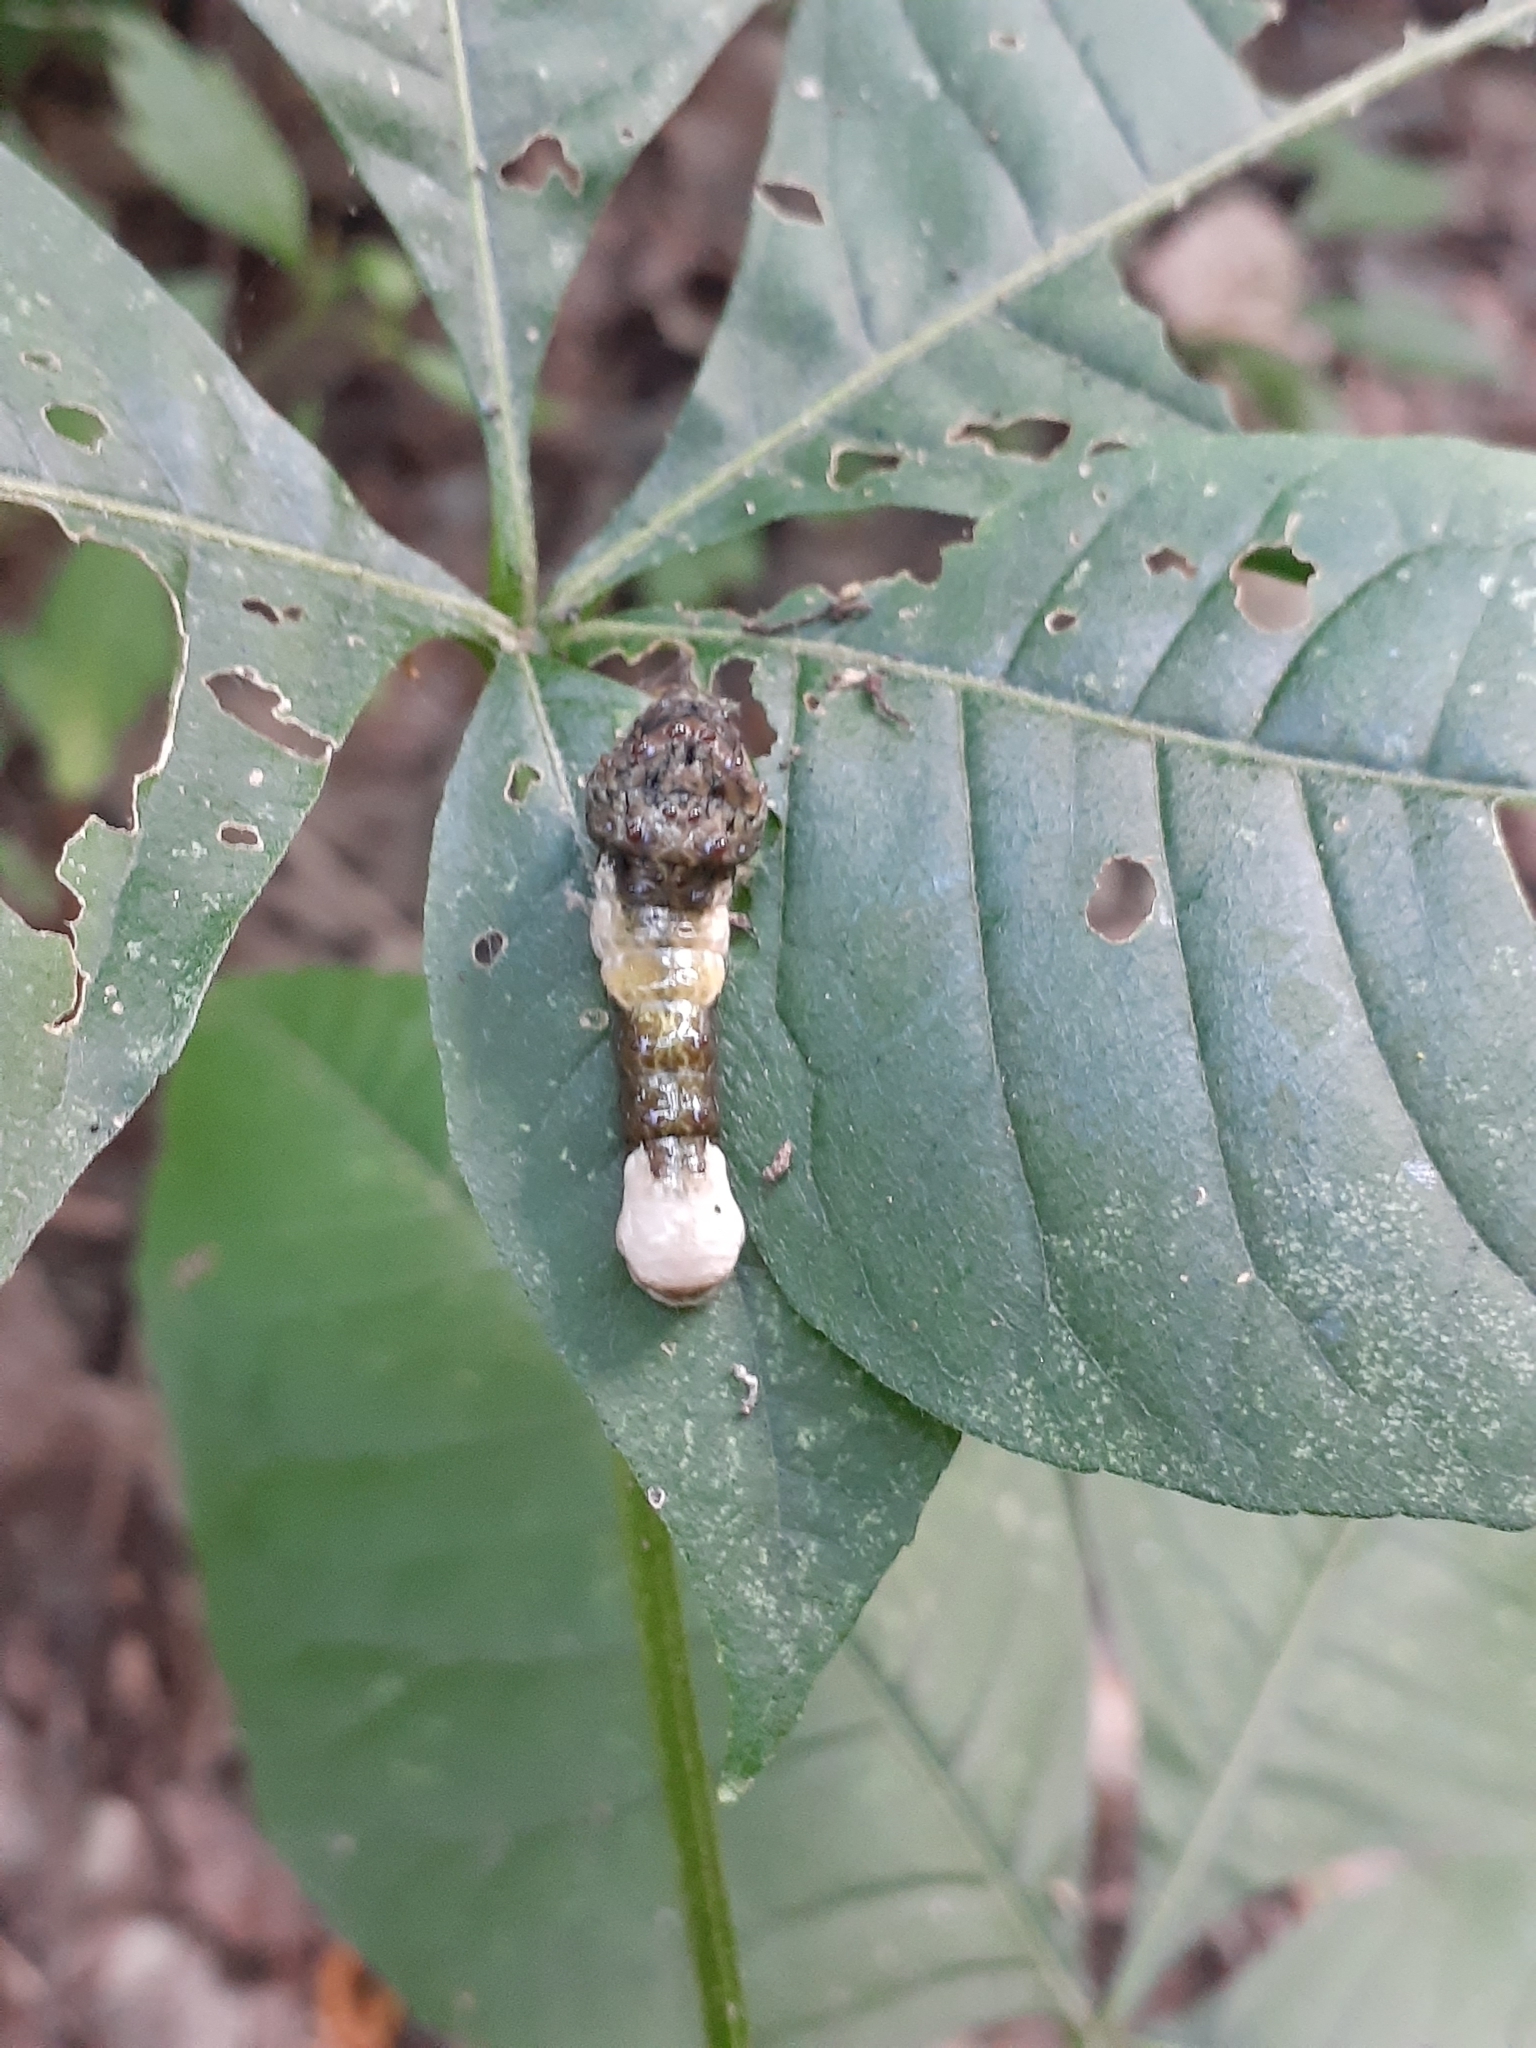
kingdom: Animalia
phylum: Arthropoda
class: Insecta
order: Lepidoptera
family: Papilionidae
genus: Papilio
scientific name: Papilio cresphontes
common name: Giant swallowtail
